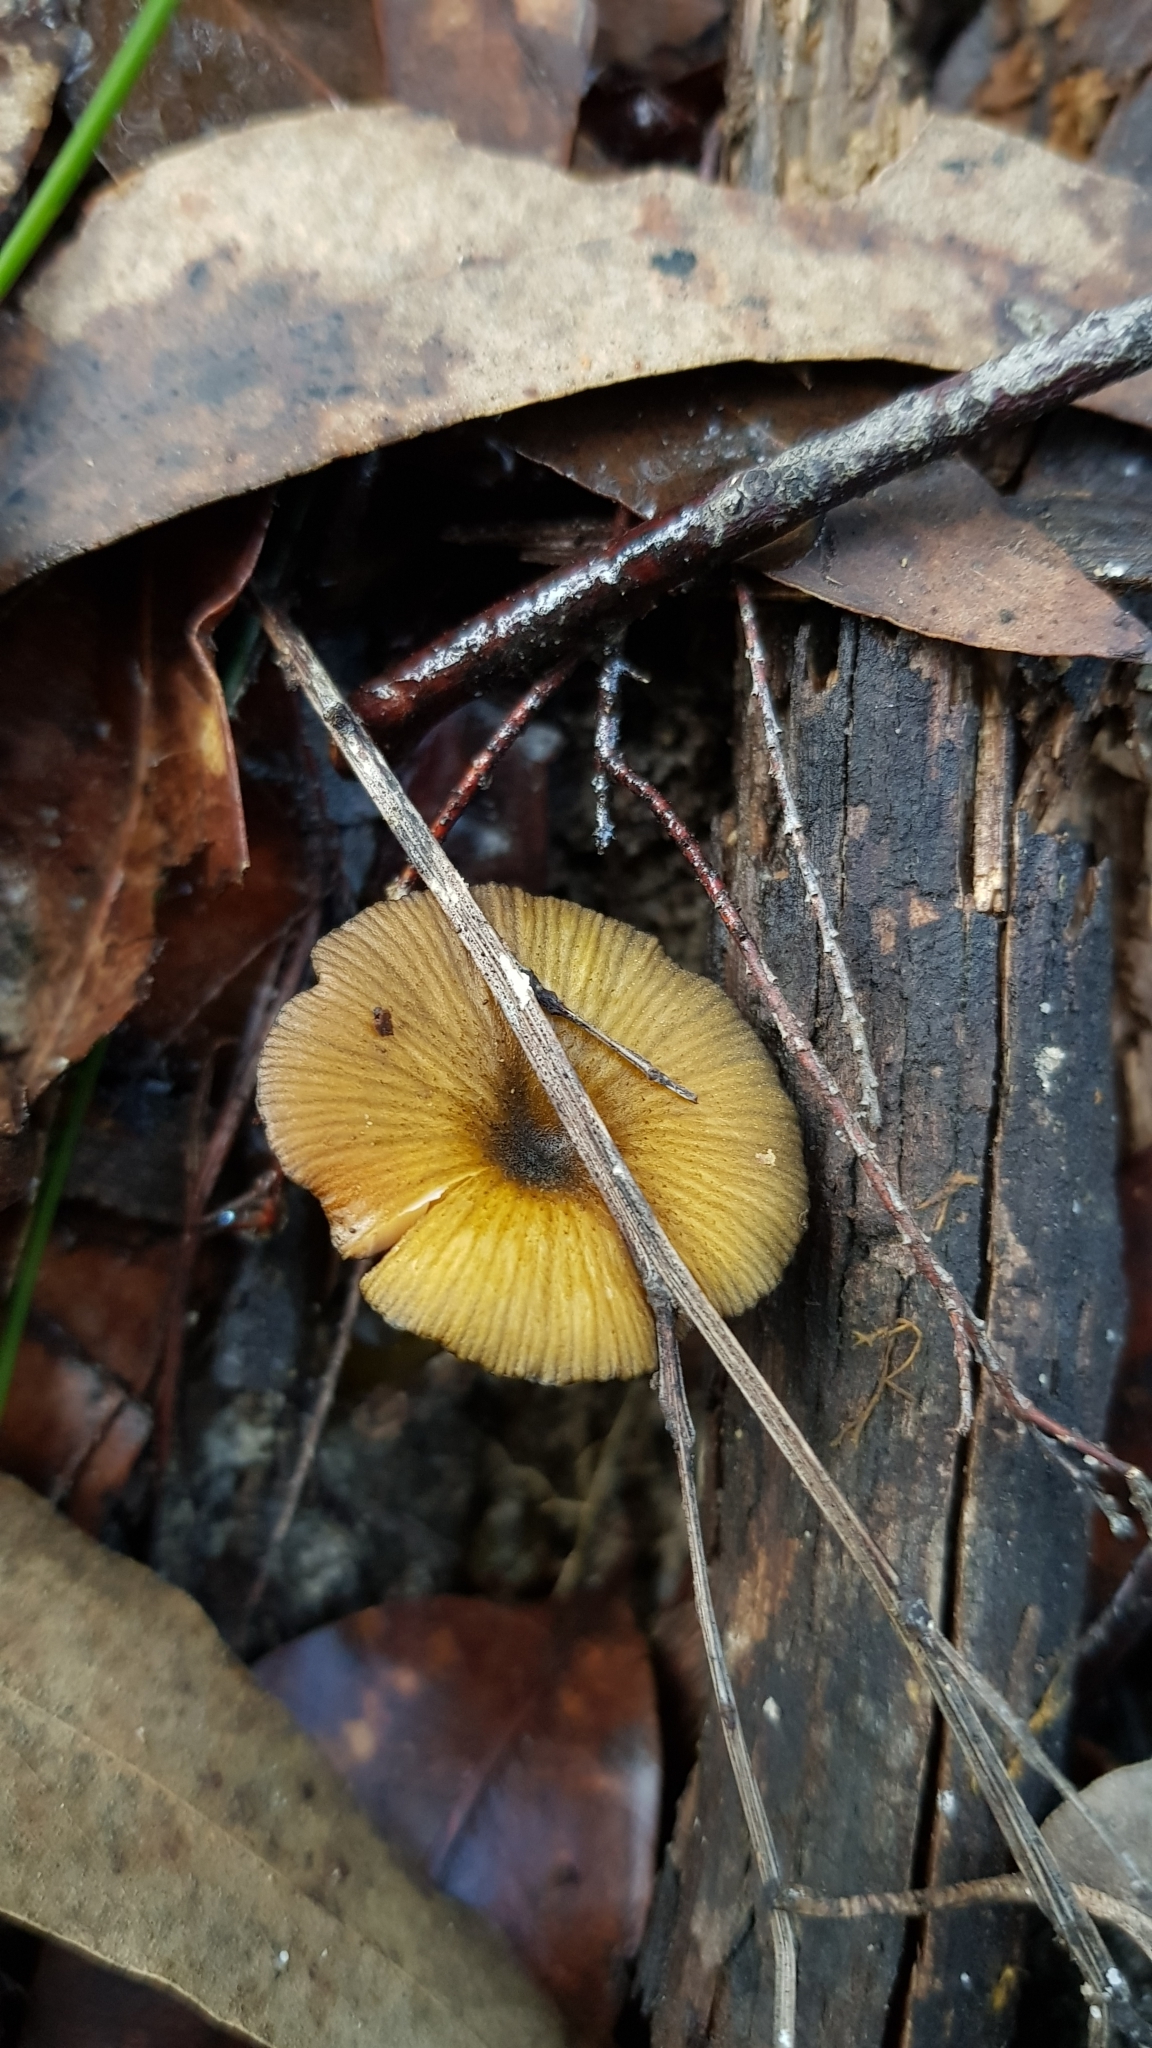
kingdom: Fungi
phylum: Basidiomycota
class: Agaricomycetes
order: Agaricales
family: Entolomataceae
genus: Entoloma
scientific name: Entoloma viridomarginatum
